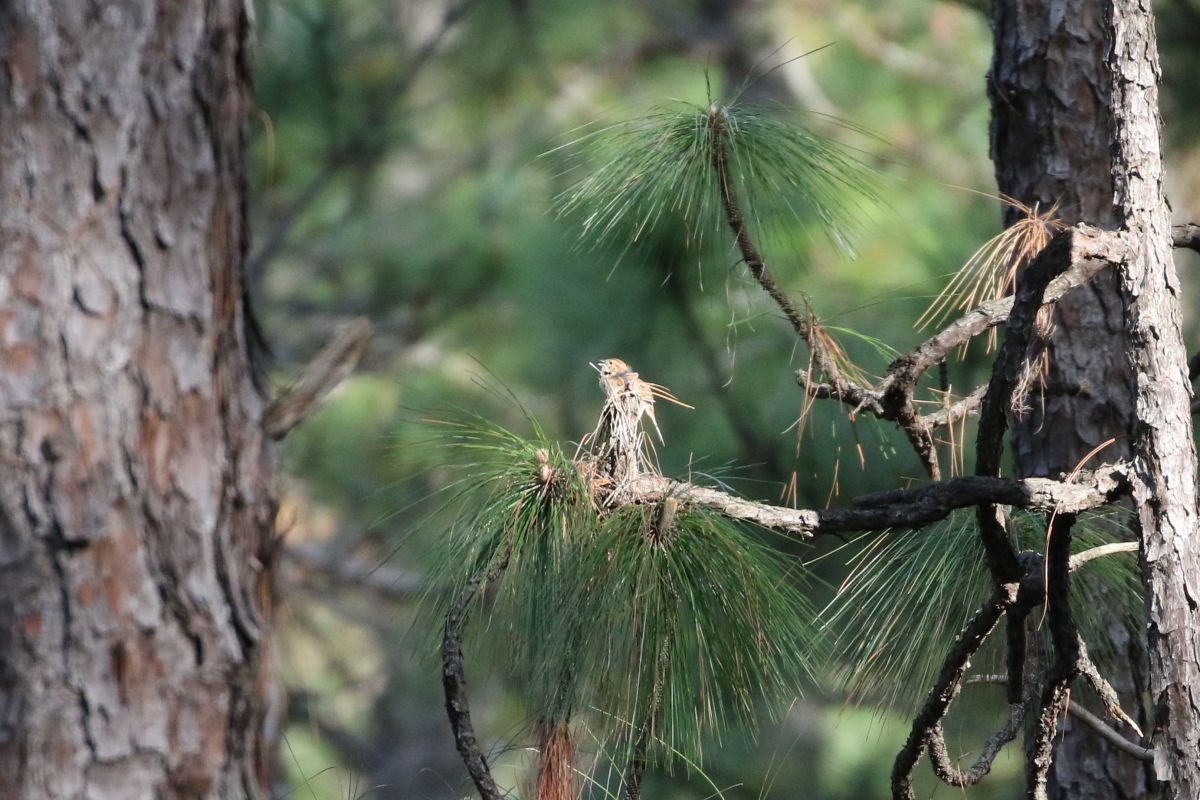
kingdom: Animalia
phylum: Chordata
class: Aves
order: Passeriformes
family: Passerellidae
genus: Peucaea
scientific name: Peucaea aestivalis
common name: Bachman's sparrow
